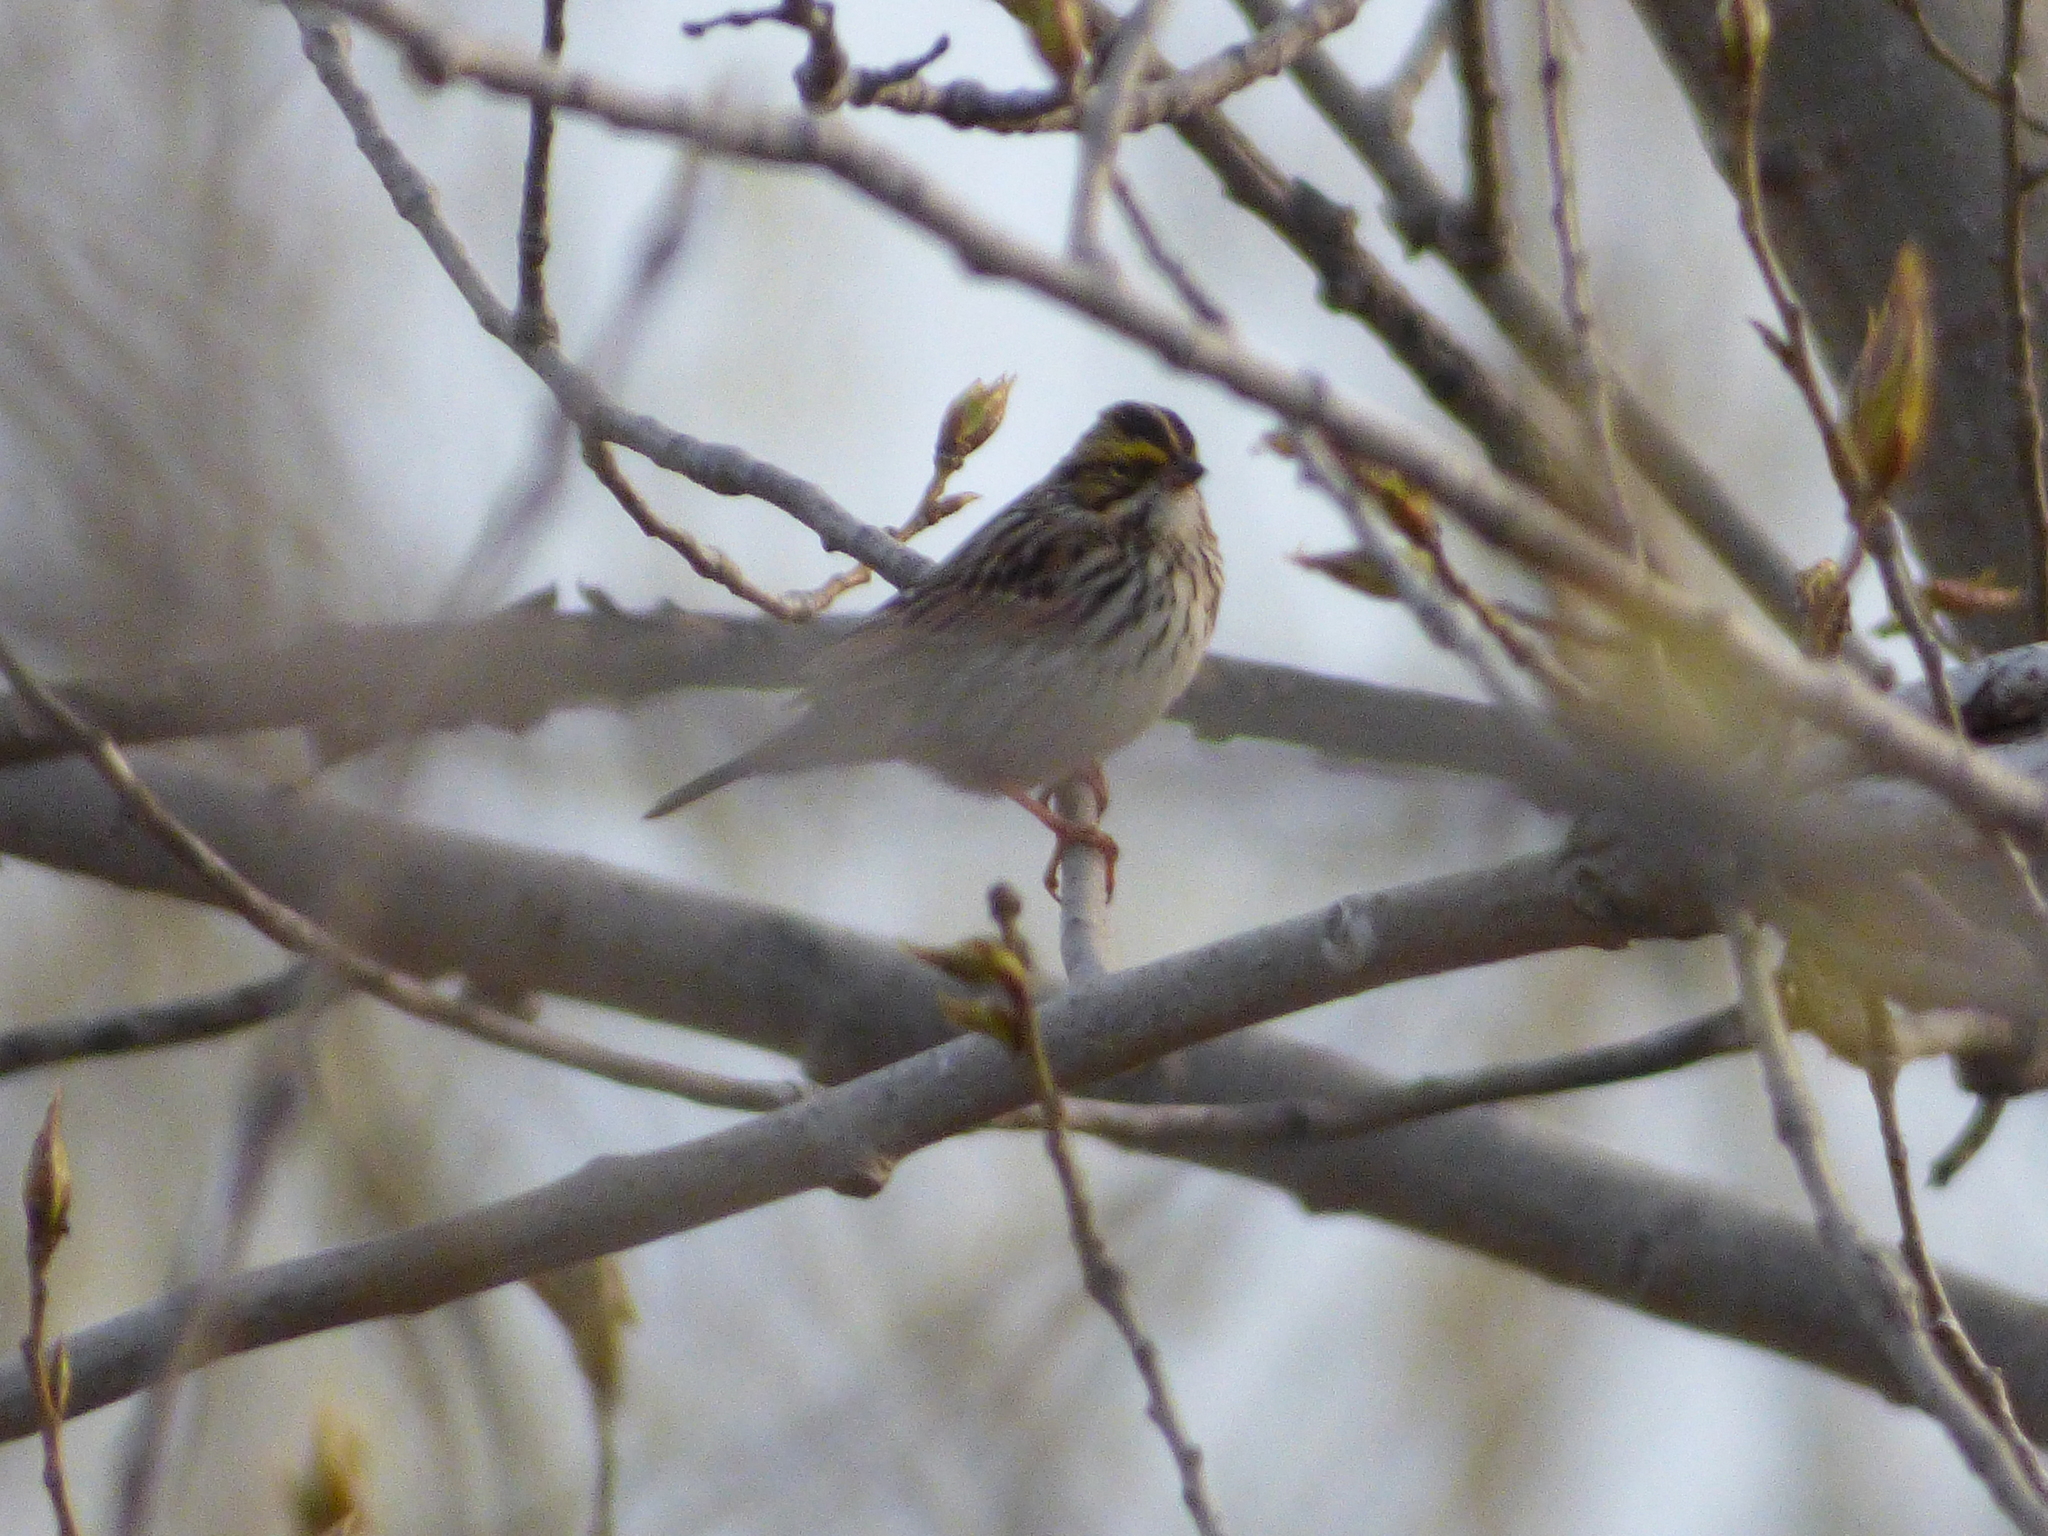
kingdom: Animalia
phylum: Chordata
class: Aves
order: Passeriformes
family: Passerellidae
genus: Passerculus
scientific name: Passerculus sandwichensis
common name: Savannah sparrow
